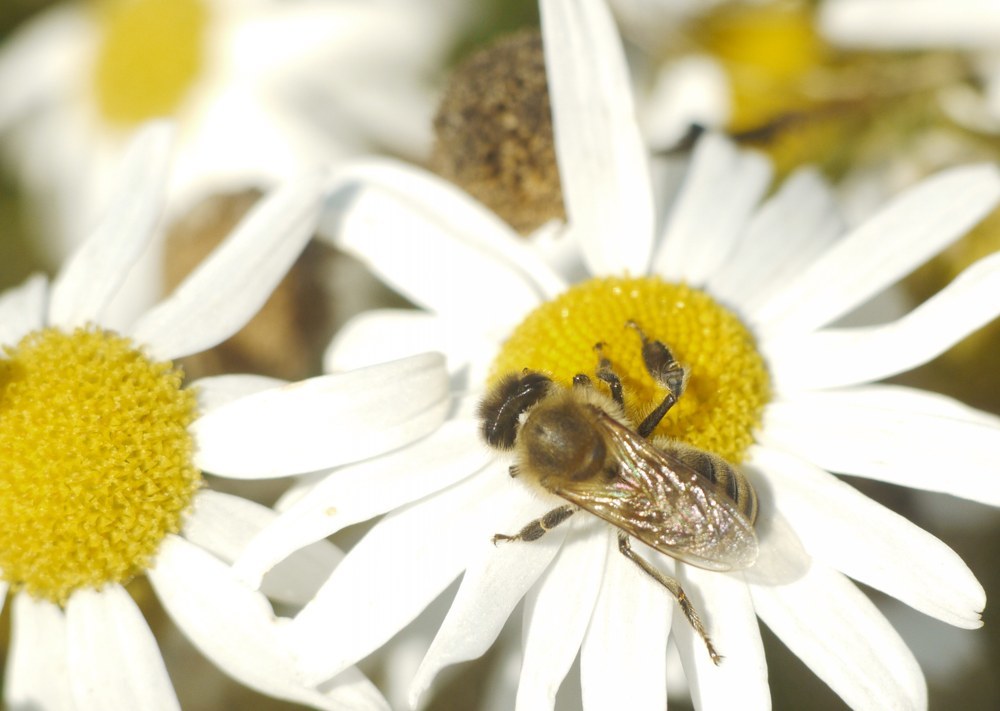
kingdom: Animalia
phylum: Arthropoda
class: Insecta
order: Hymenoptera
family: Apidae
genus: Apis
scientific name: Apis mellifera
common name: Honey bee
